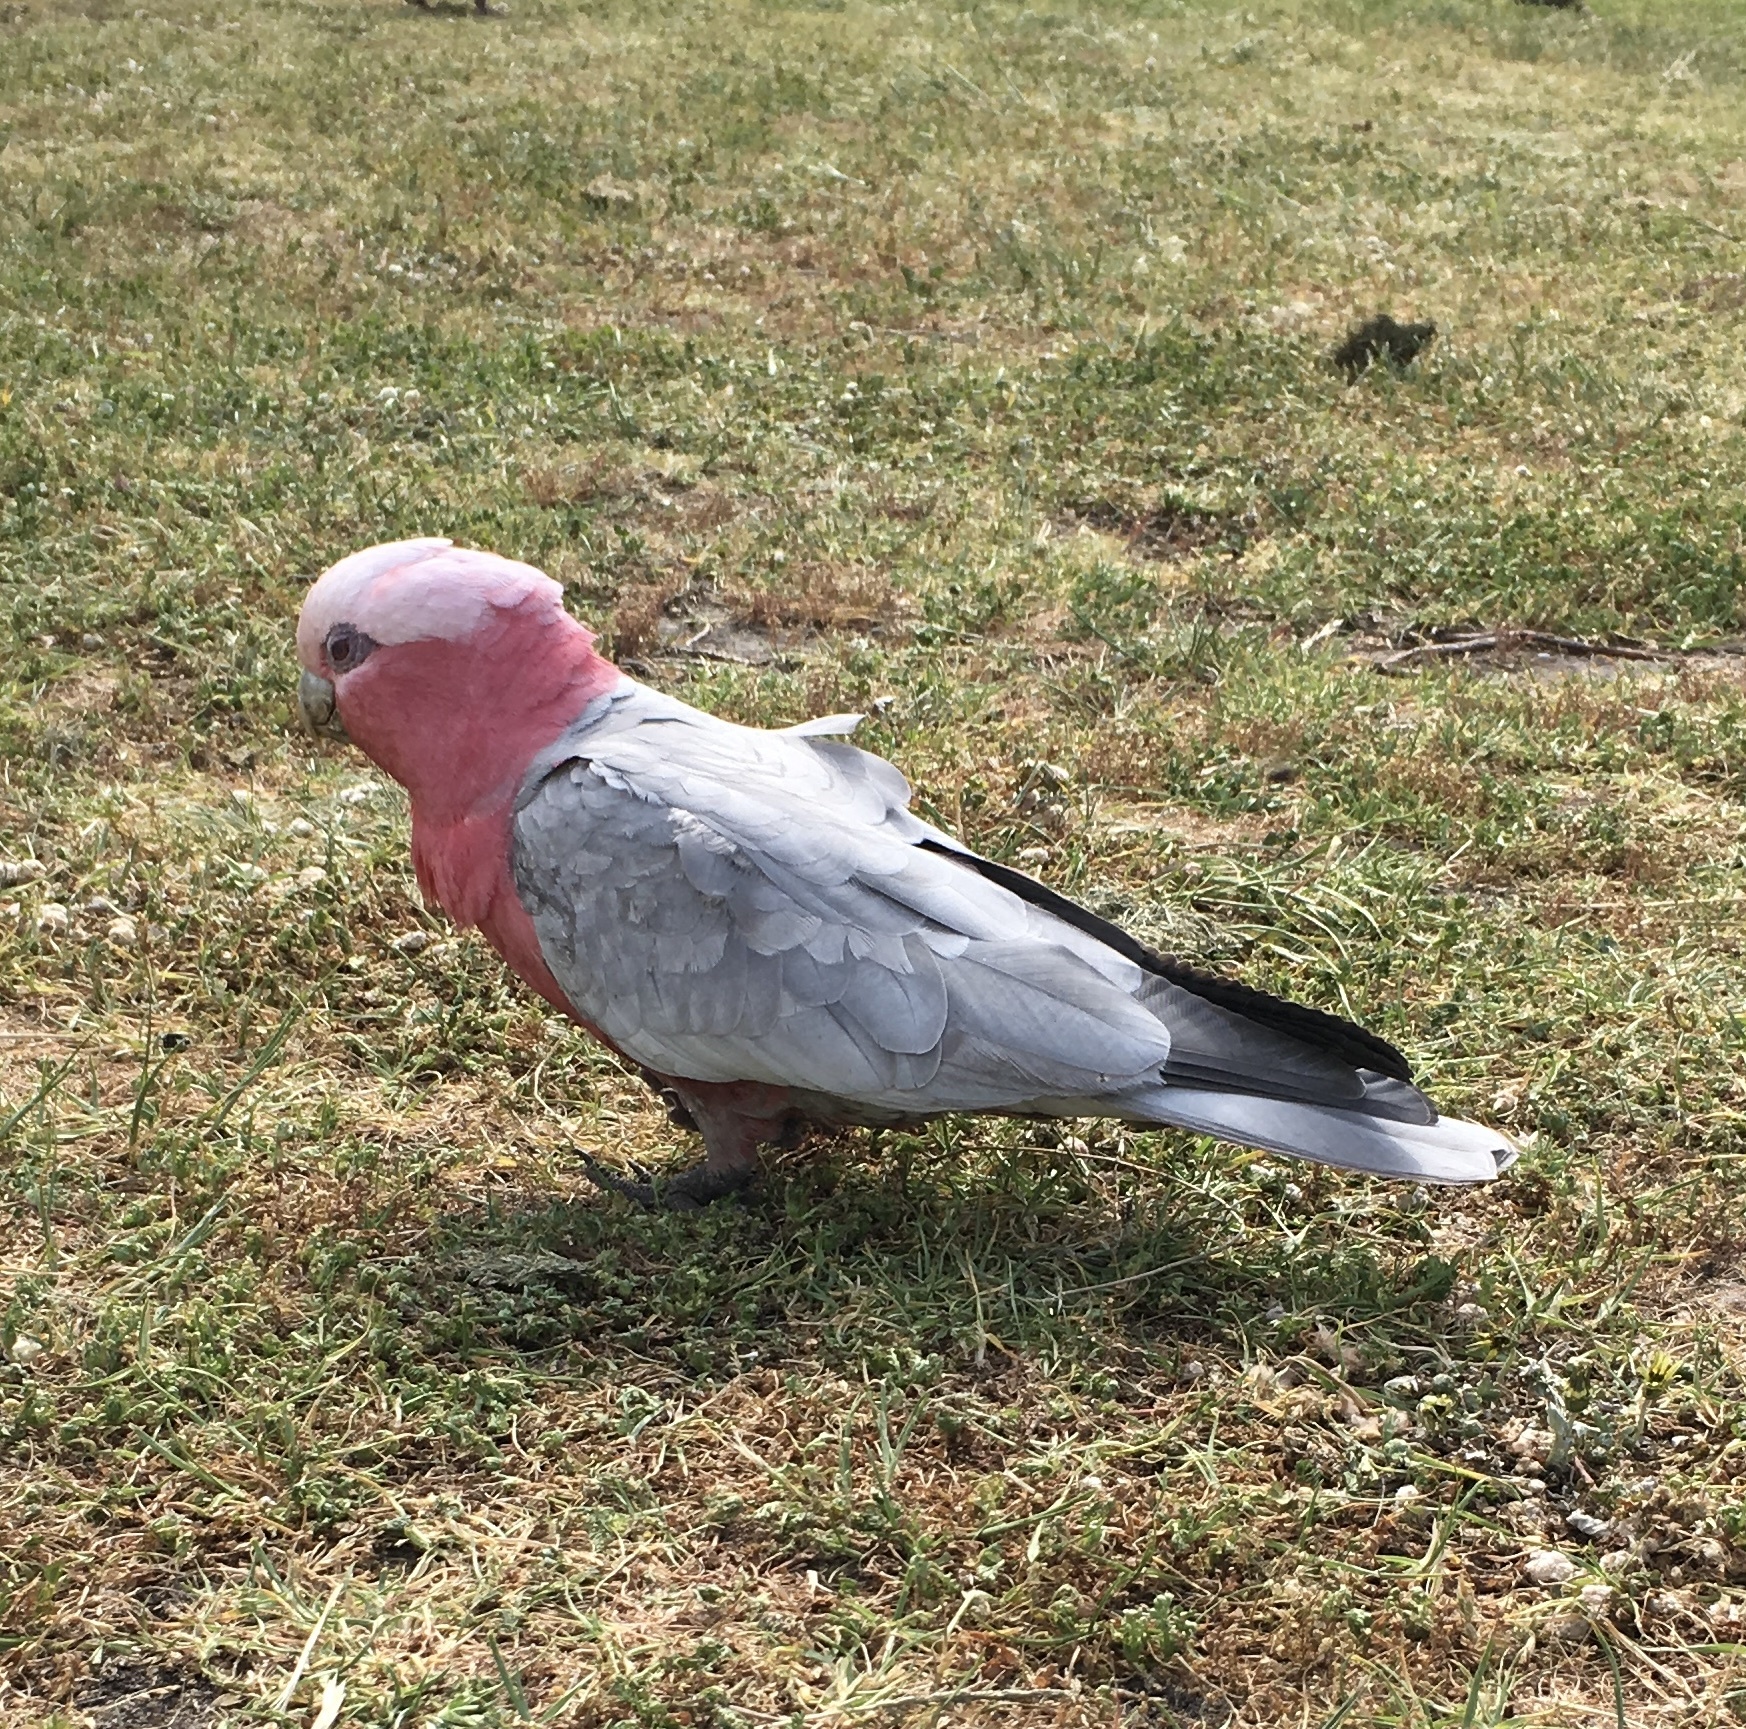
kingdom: Animalia
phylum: Chordata
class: Aves
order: Psittaciformes
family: Psittacidae
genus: Eolophus
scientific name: Eolophus roseicapilla
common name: Galah
